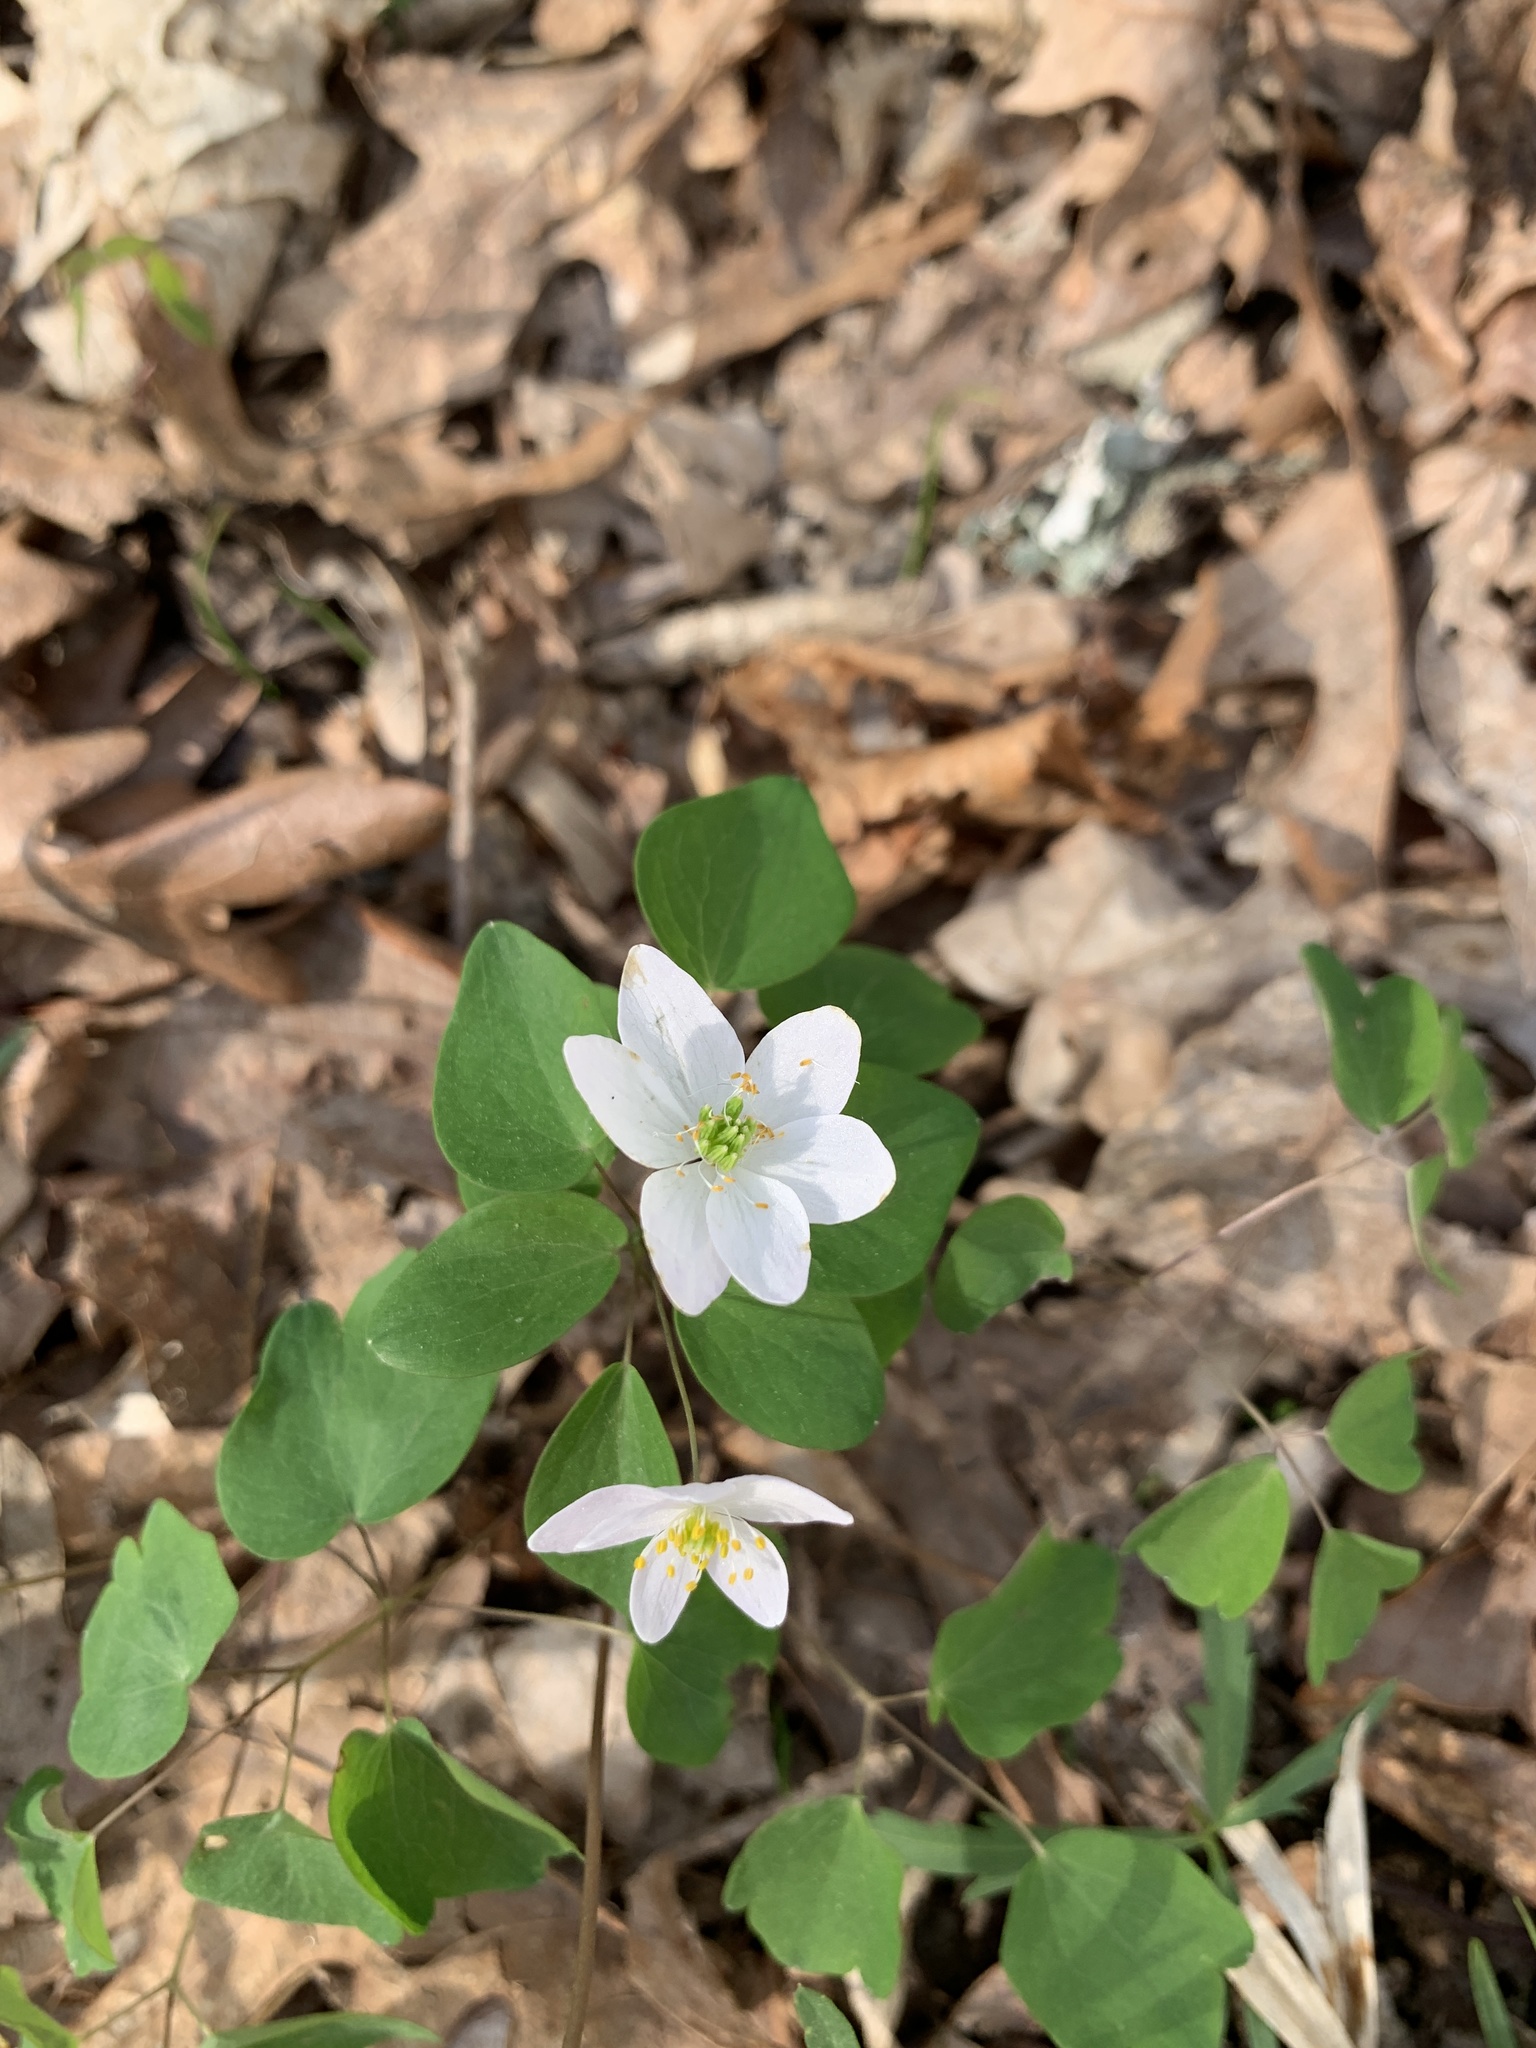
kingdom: Plantae
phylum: Tracheophyta
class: Magnoliopsida
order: Ranunculales
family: Ranunculaceae
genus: Thalictrum
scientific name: Thalictrum thalictroides
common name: Rue-anemone
